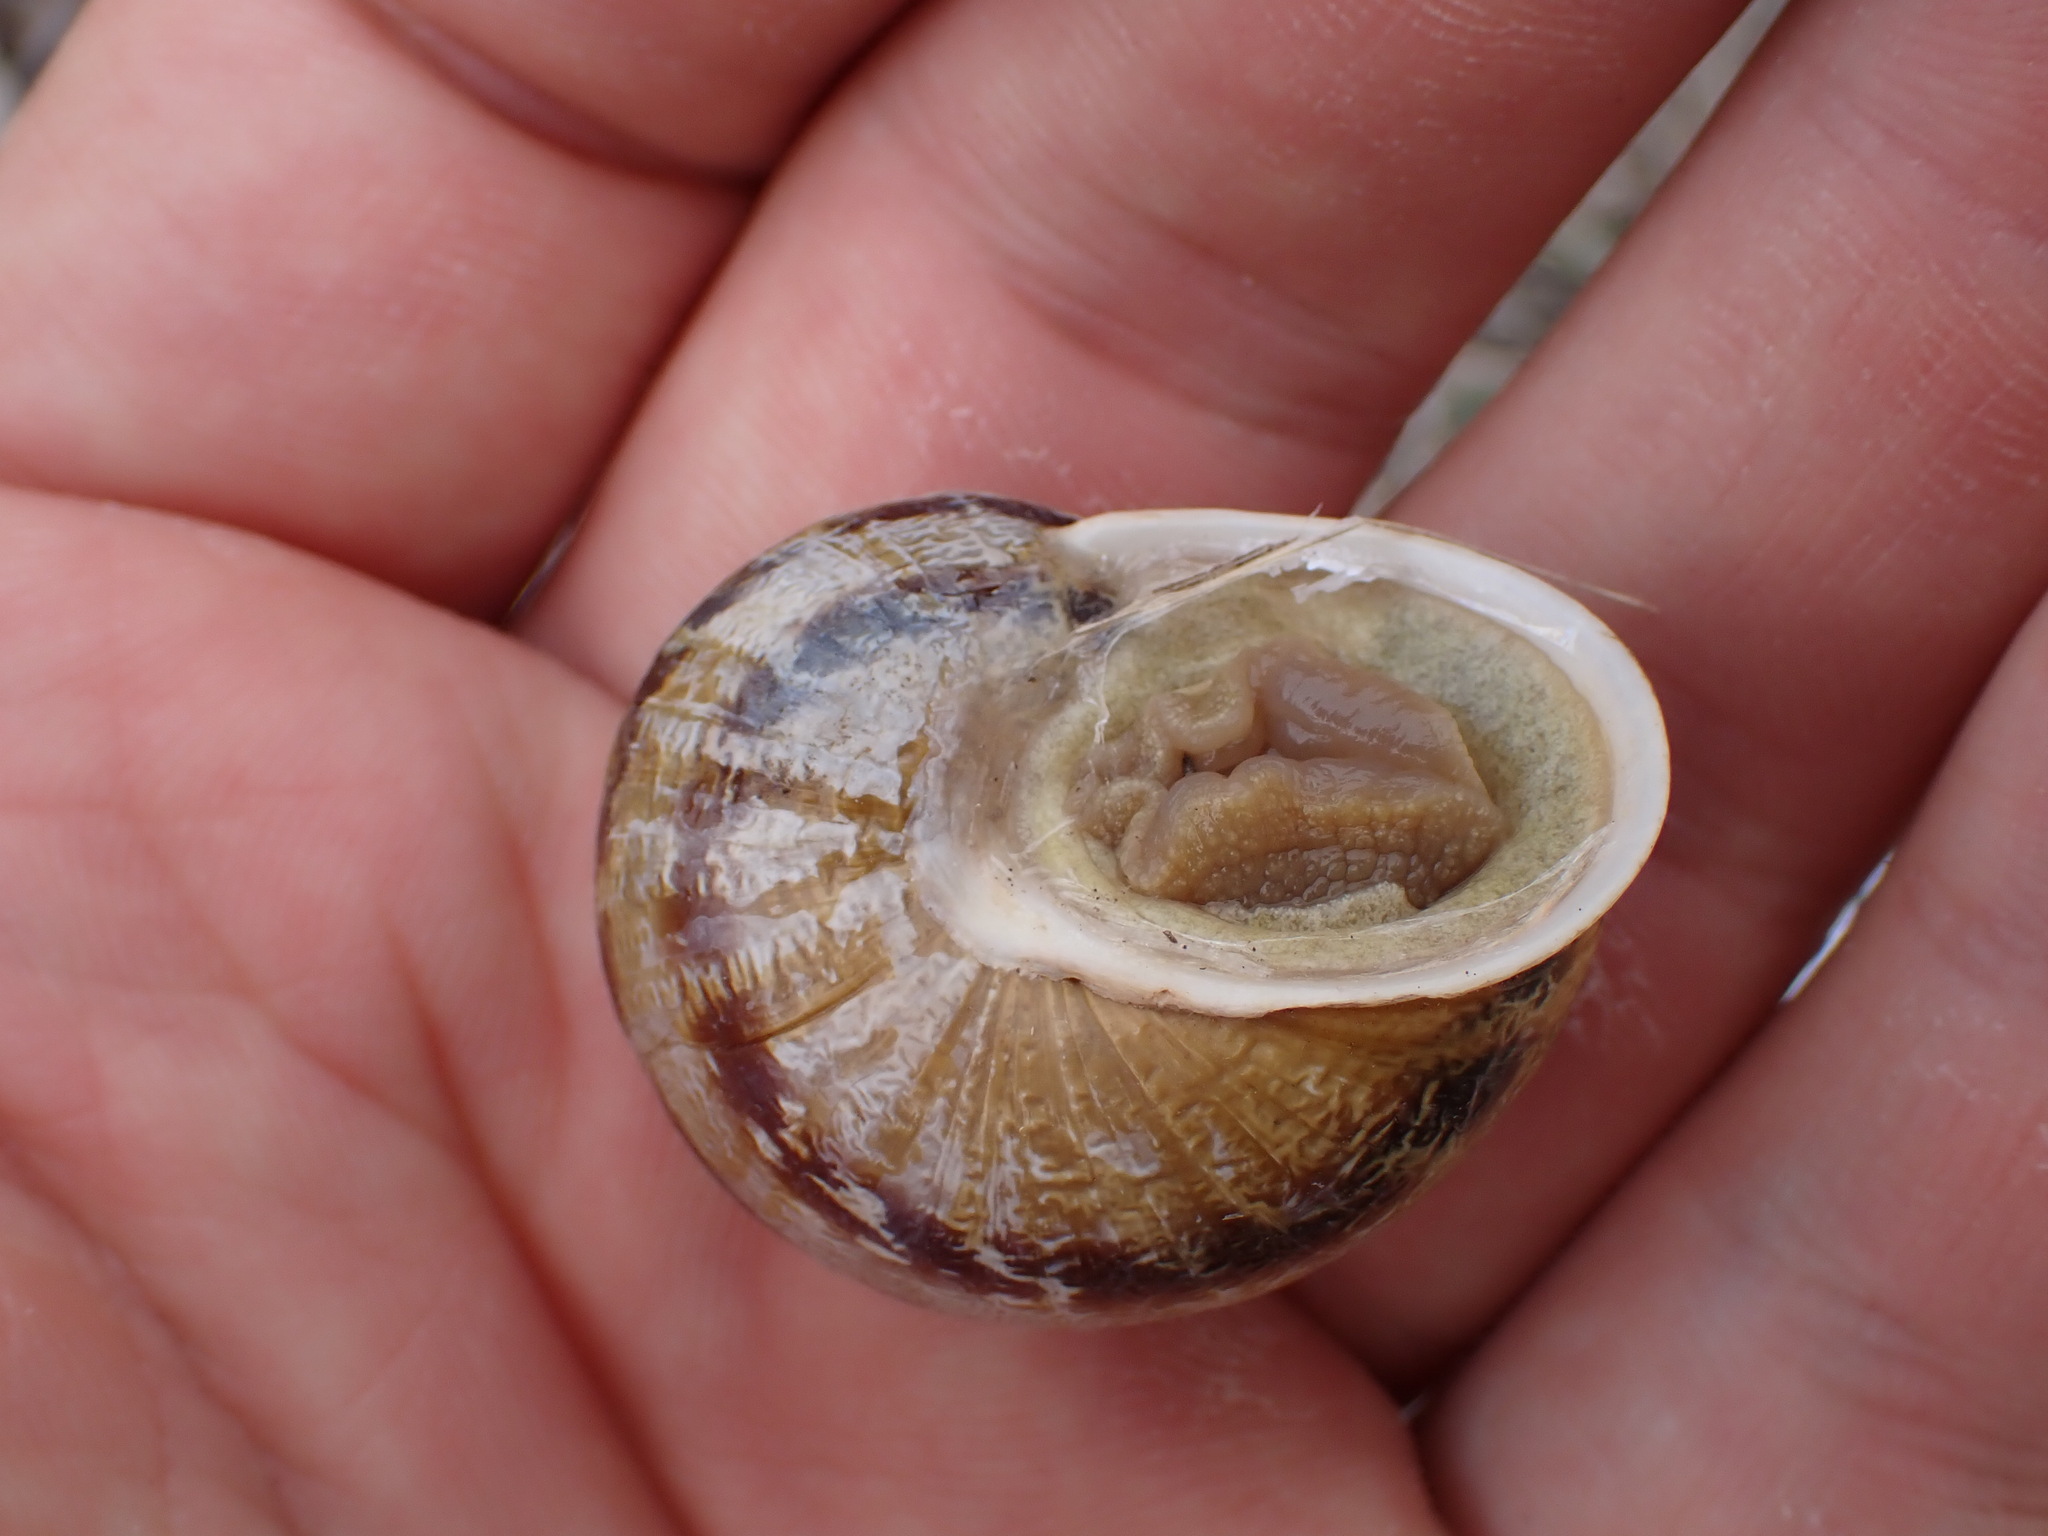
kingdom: Animalia
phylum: Mollusca
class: Gastropoda
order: Stylommatophora
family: Helicidae
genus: Cornu
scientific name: Cornu aspersum
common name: Brown garden snail
